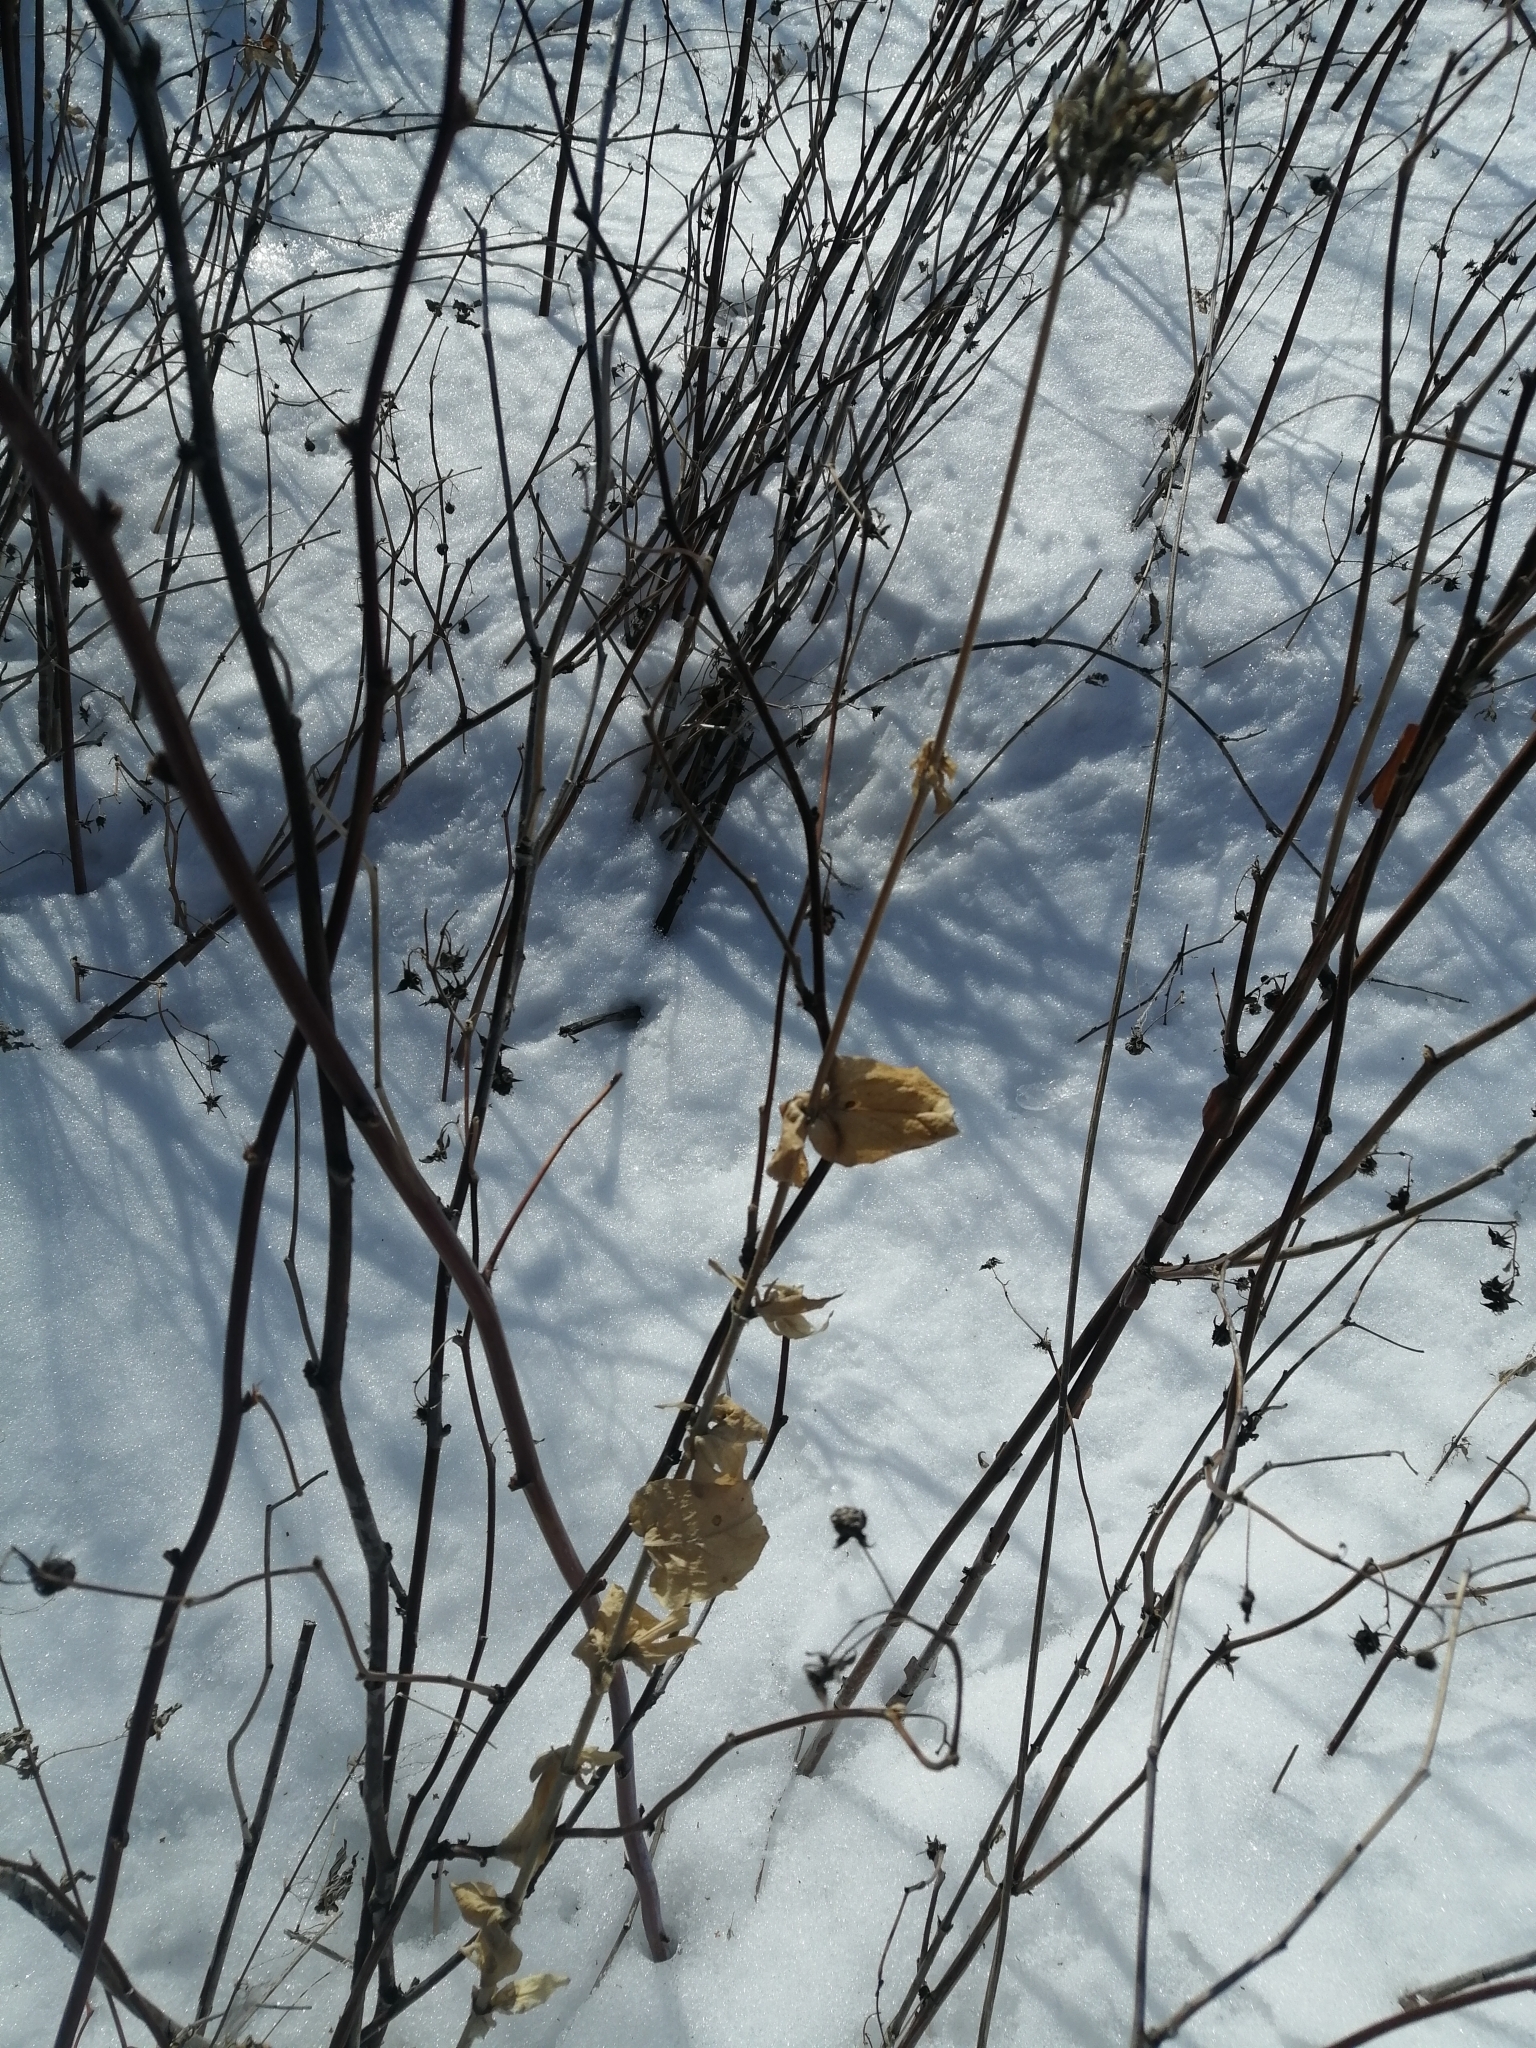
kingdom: Plantae
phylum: Tracheophyta
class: Magnoliopsida
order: Caryophyllales
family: Caryophyllaceae
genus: Silene
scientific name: Silene chalcedonica
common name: Maltese-cross
